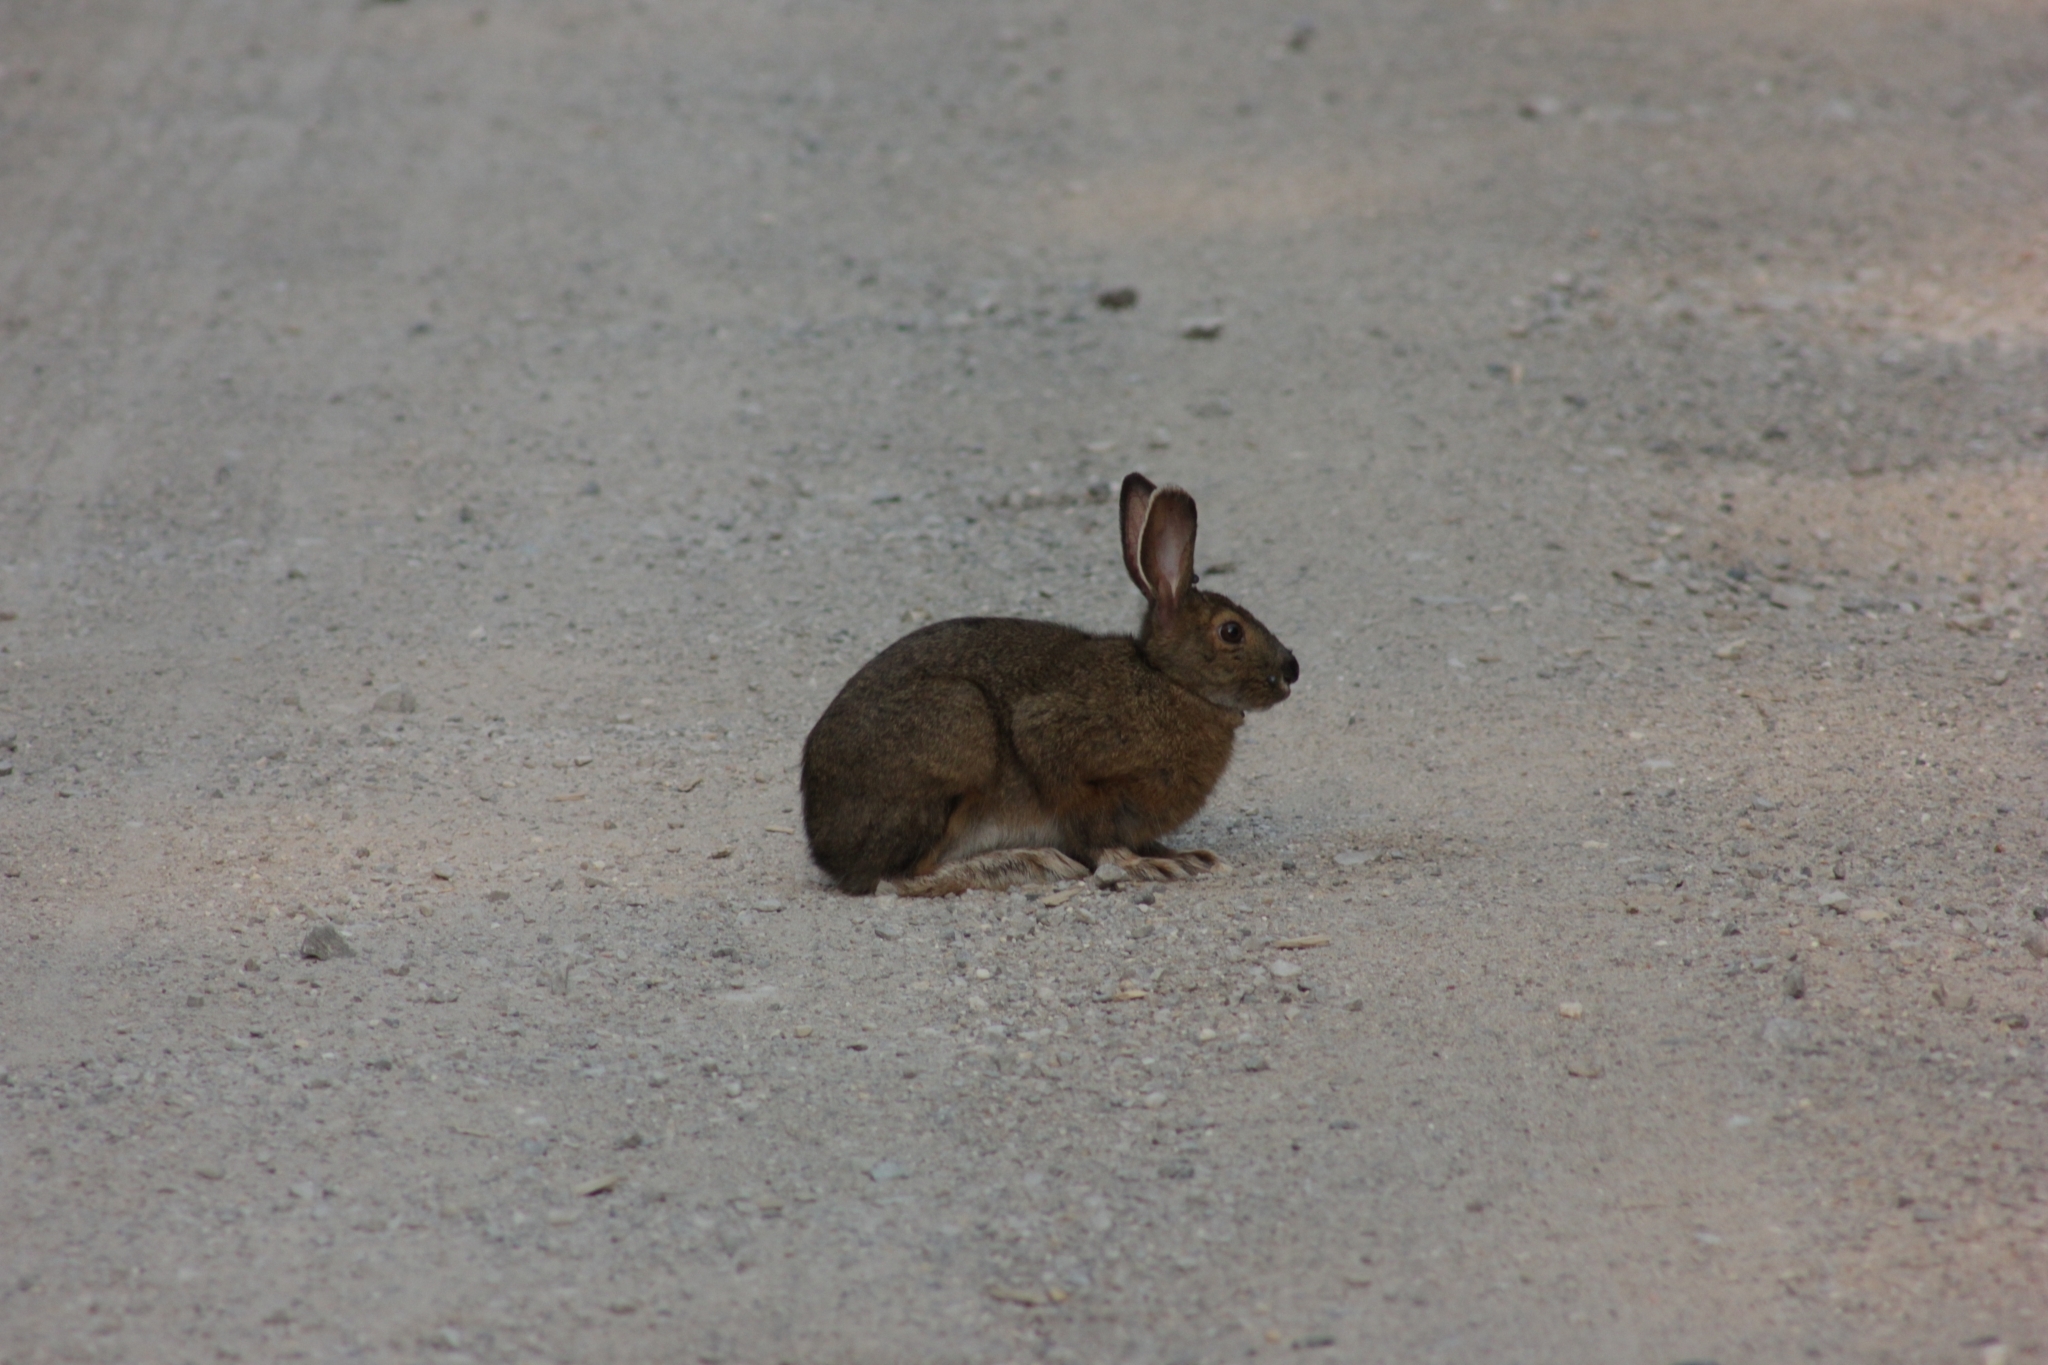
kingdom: Animalia
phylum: Chordata
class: Mammalia
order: Lagomorpha
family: Leporidae
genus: Lepus
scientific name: Lepus americanus
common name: Snowshoe hare
